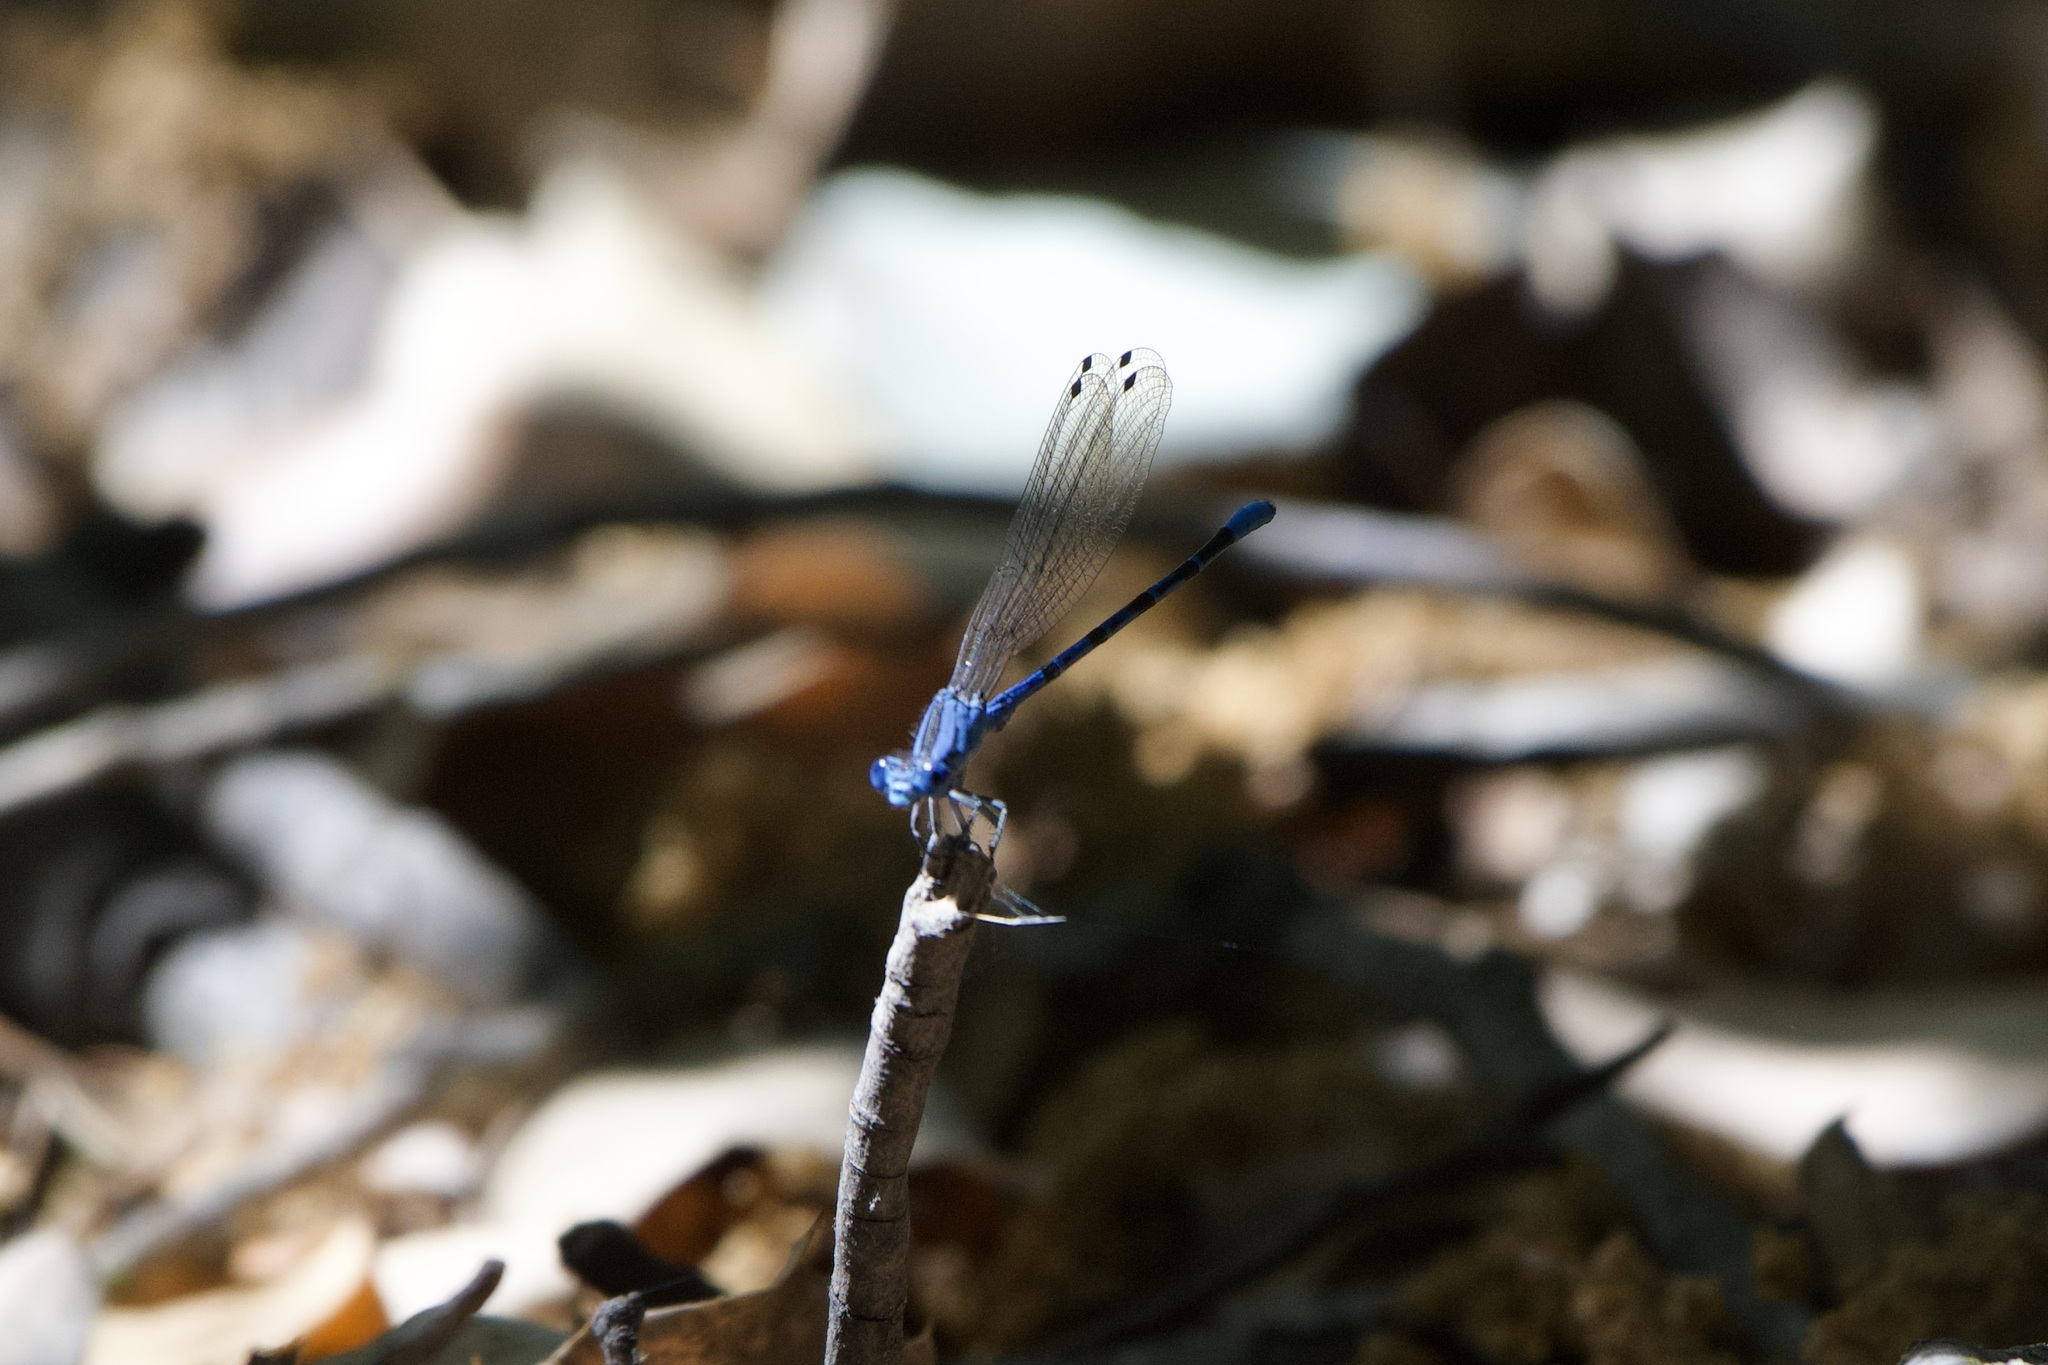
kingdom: Animalia
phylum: Arthropoda
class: Insecta
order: Odonata
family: Coenagrionidae
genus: Argia
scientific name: Argia vivida
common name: Vivid dancer
